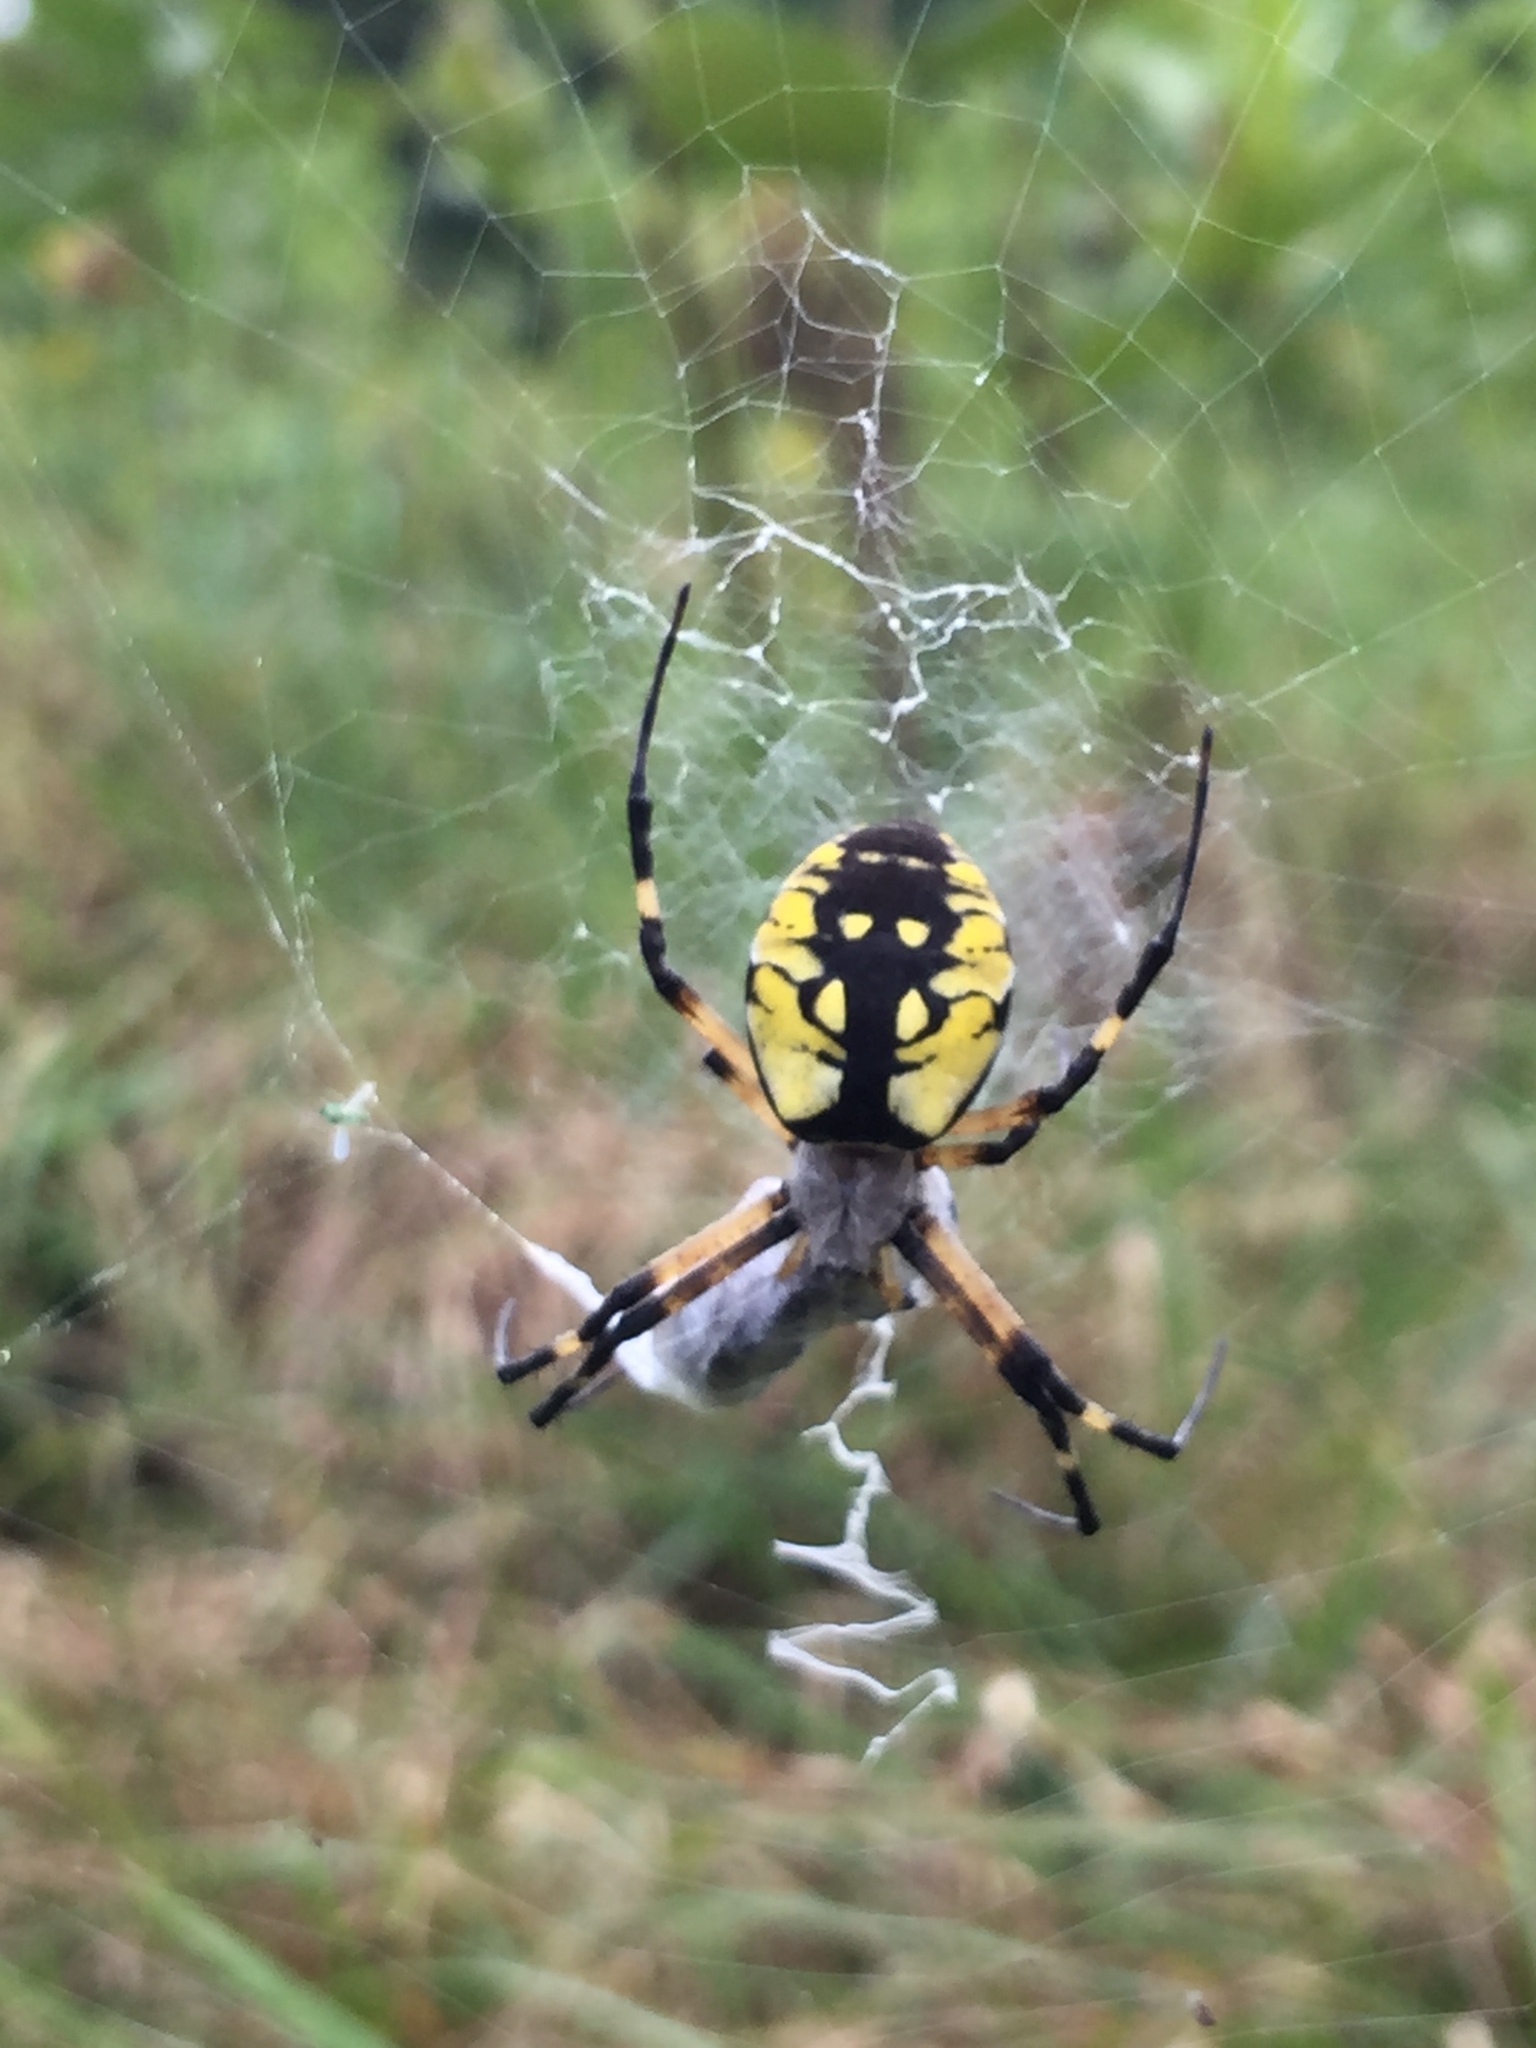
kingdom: Animalia
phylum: Arthropoda
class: Arachnida
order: Araneae
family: Araneidae
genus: Argiope
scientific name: Argiope aurantia
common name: Orb weavers
